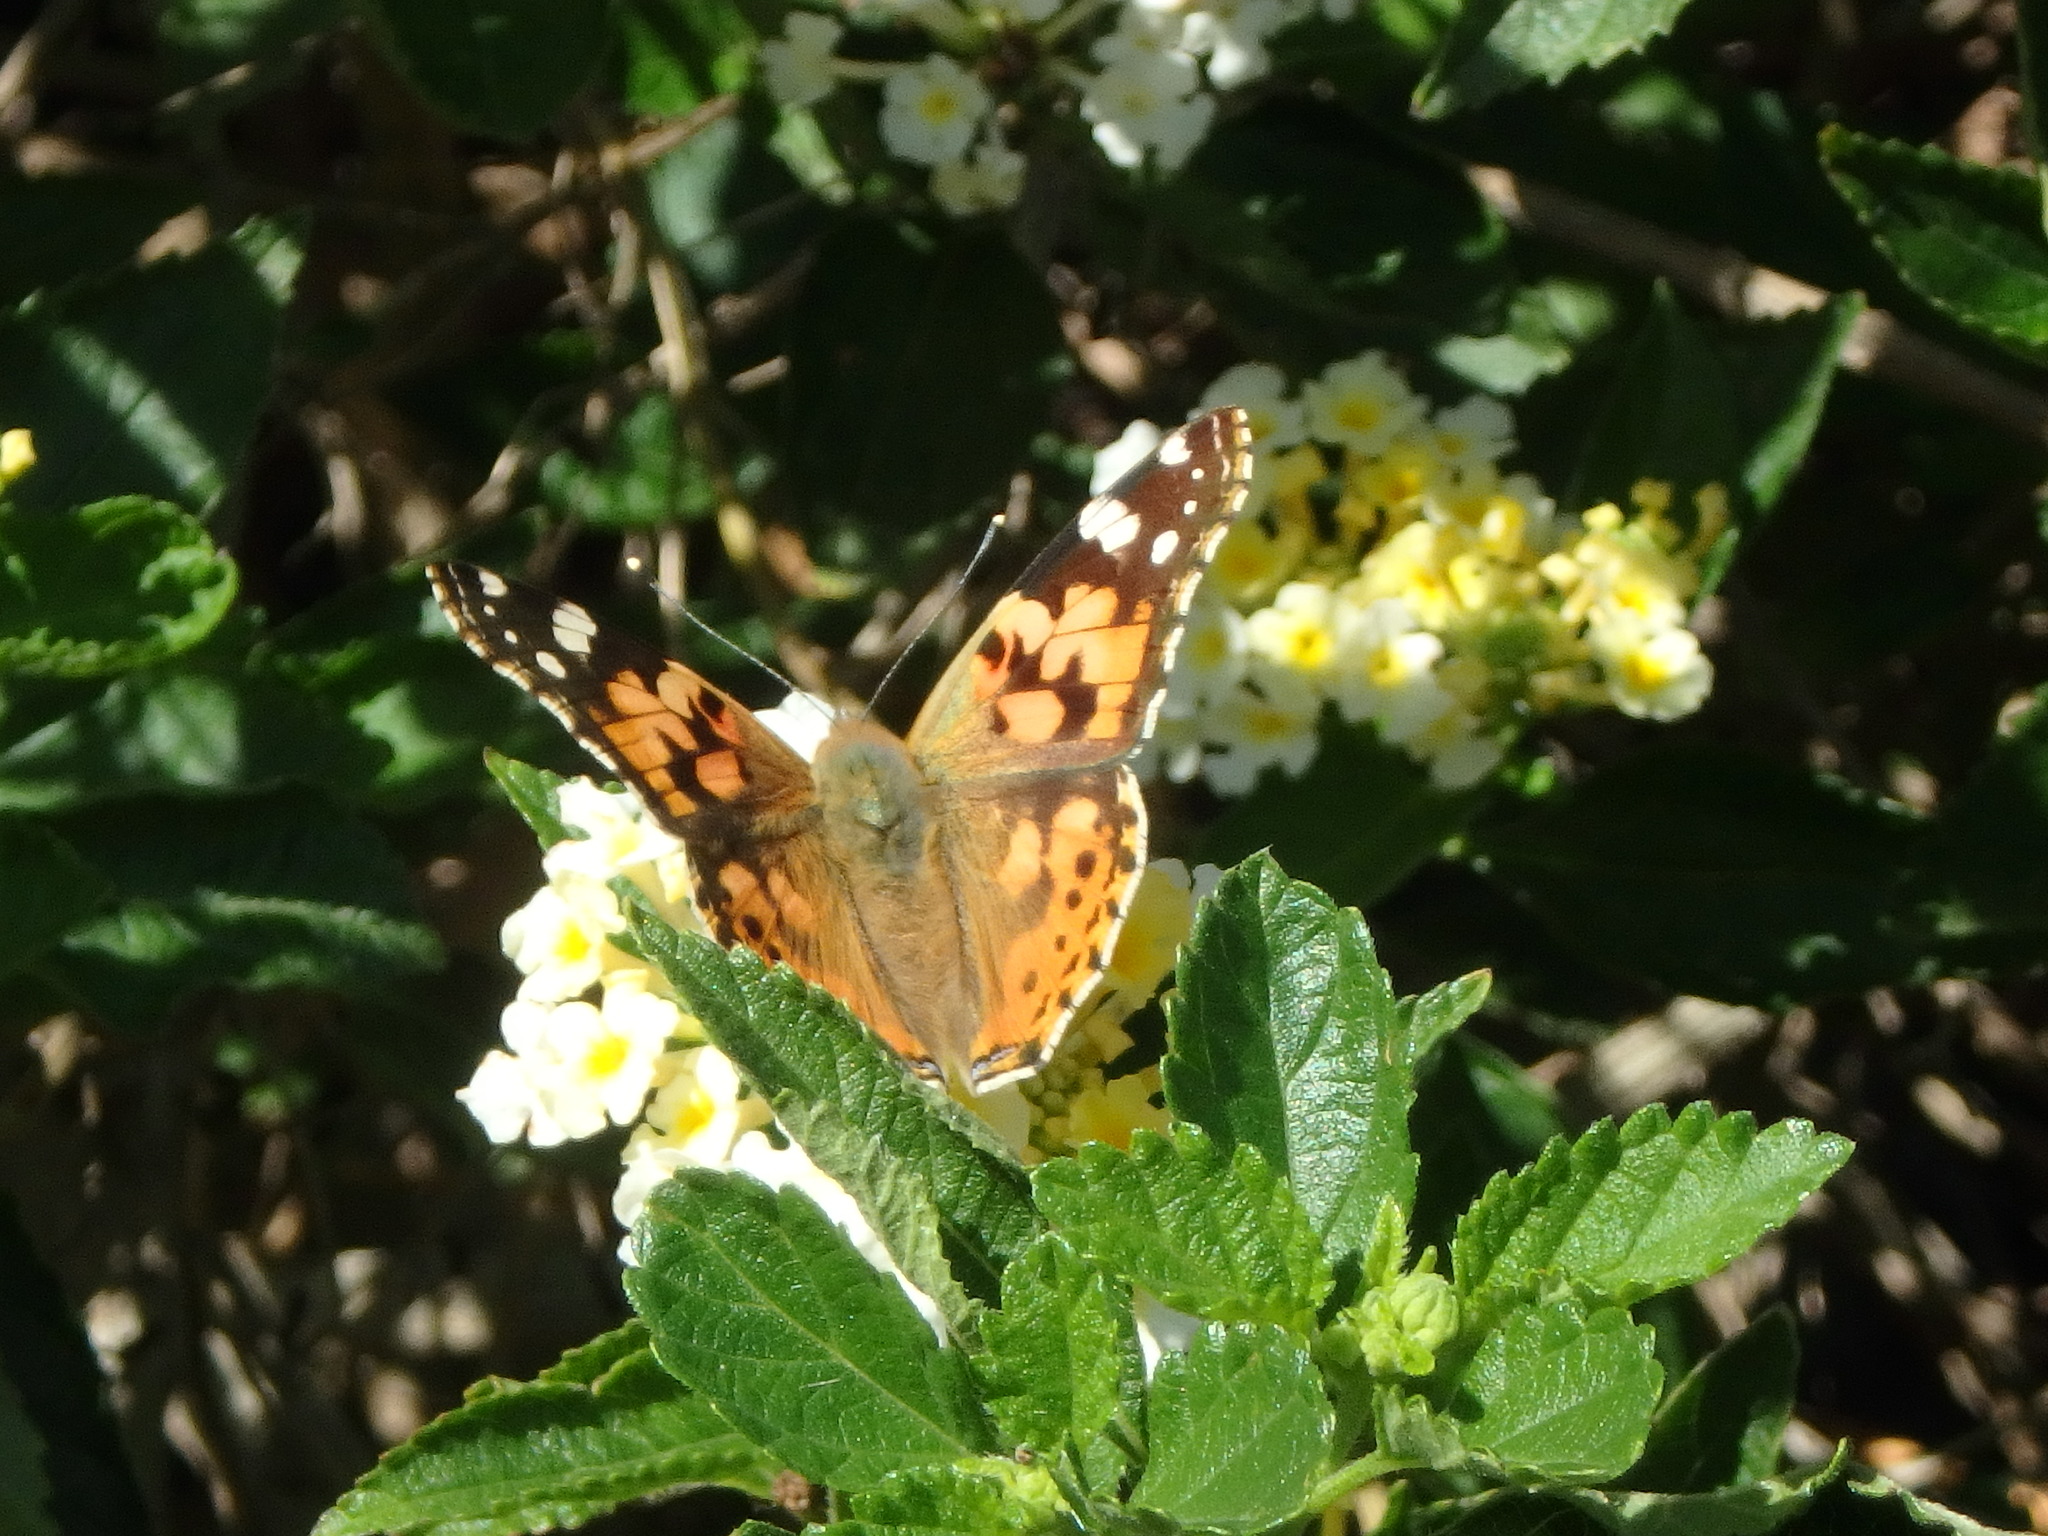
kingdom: Animalia
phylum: Arthropoda
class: Insecta
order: Lepidoptera
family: Nymphalidae
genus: Vanessa
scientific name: Vanessa cardui
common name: Painted lady
